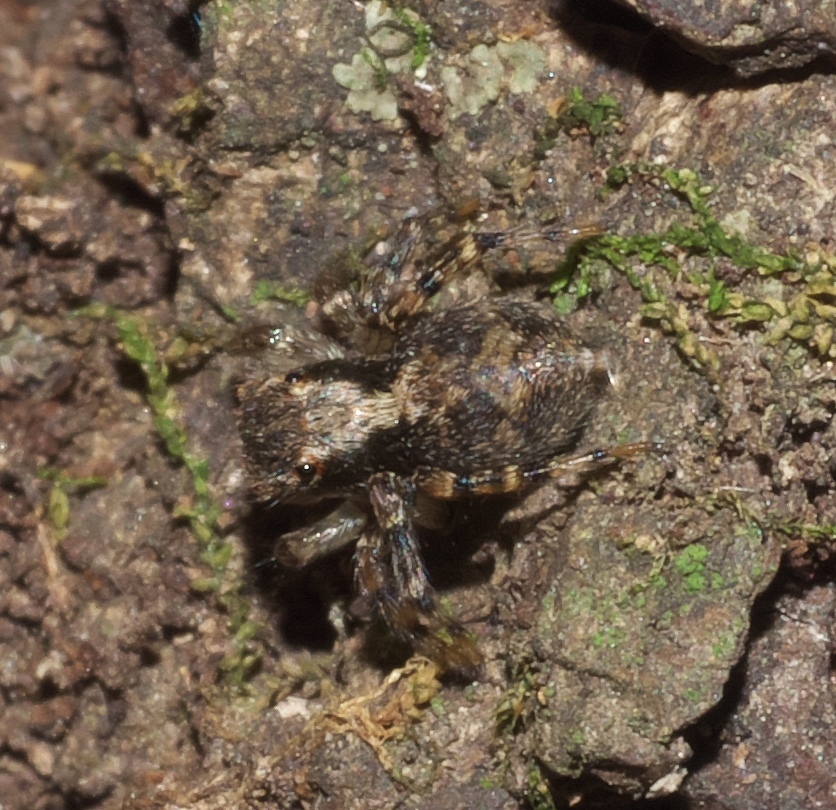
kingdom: Animalia
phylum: Arthropoda
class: Arachnida
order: Araneae
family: Salticidae
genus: Naphrys
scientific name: Naphrys pulex
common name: Flea jumping spider
